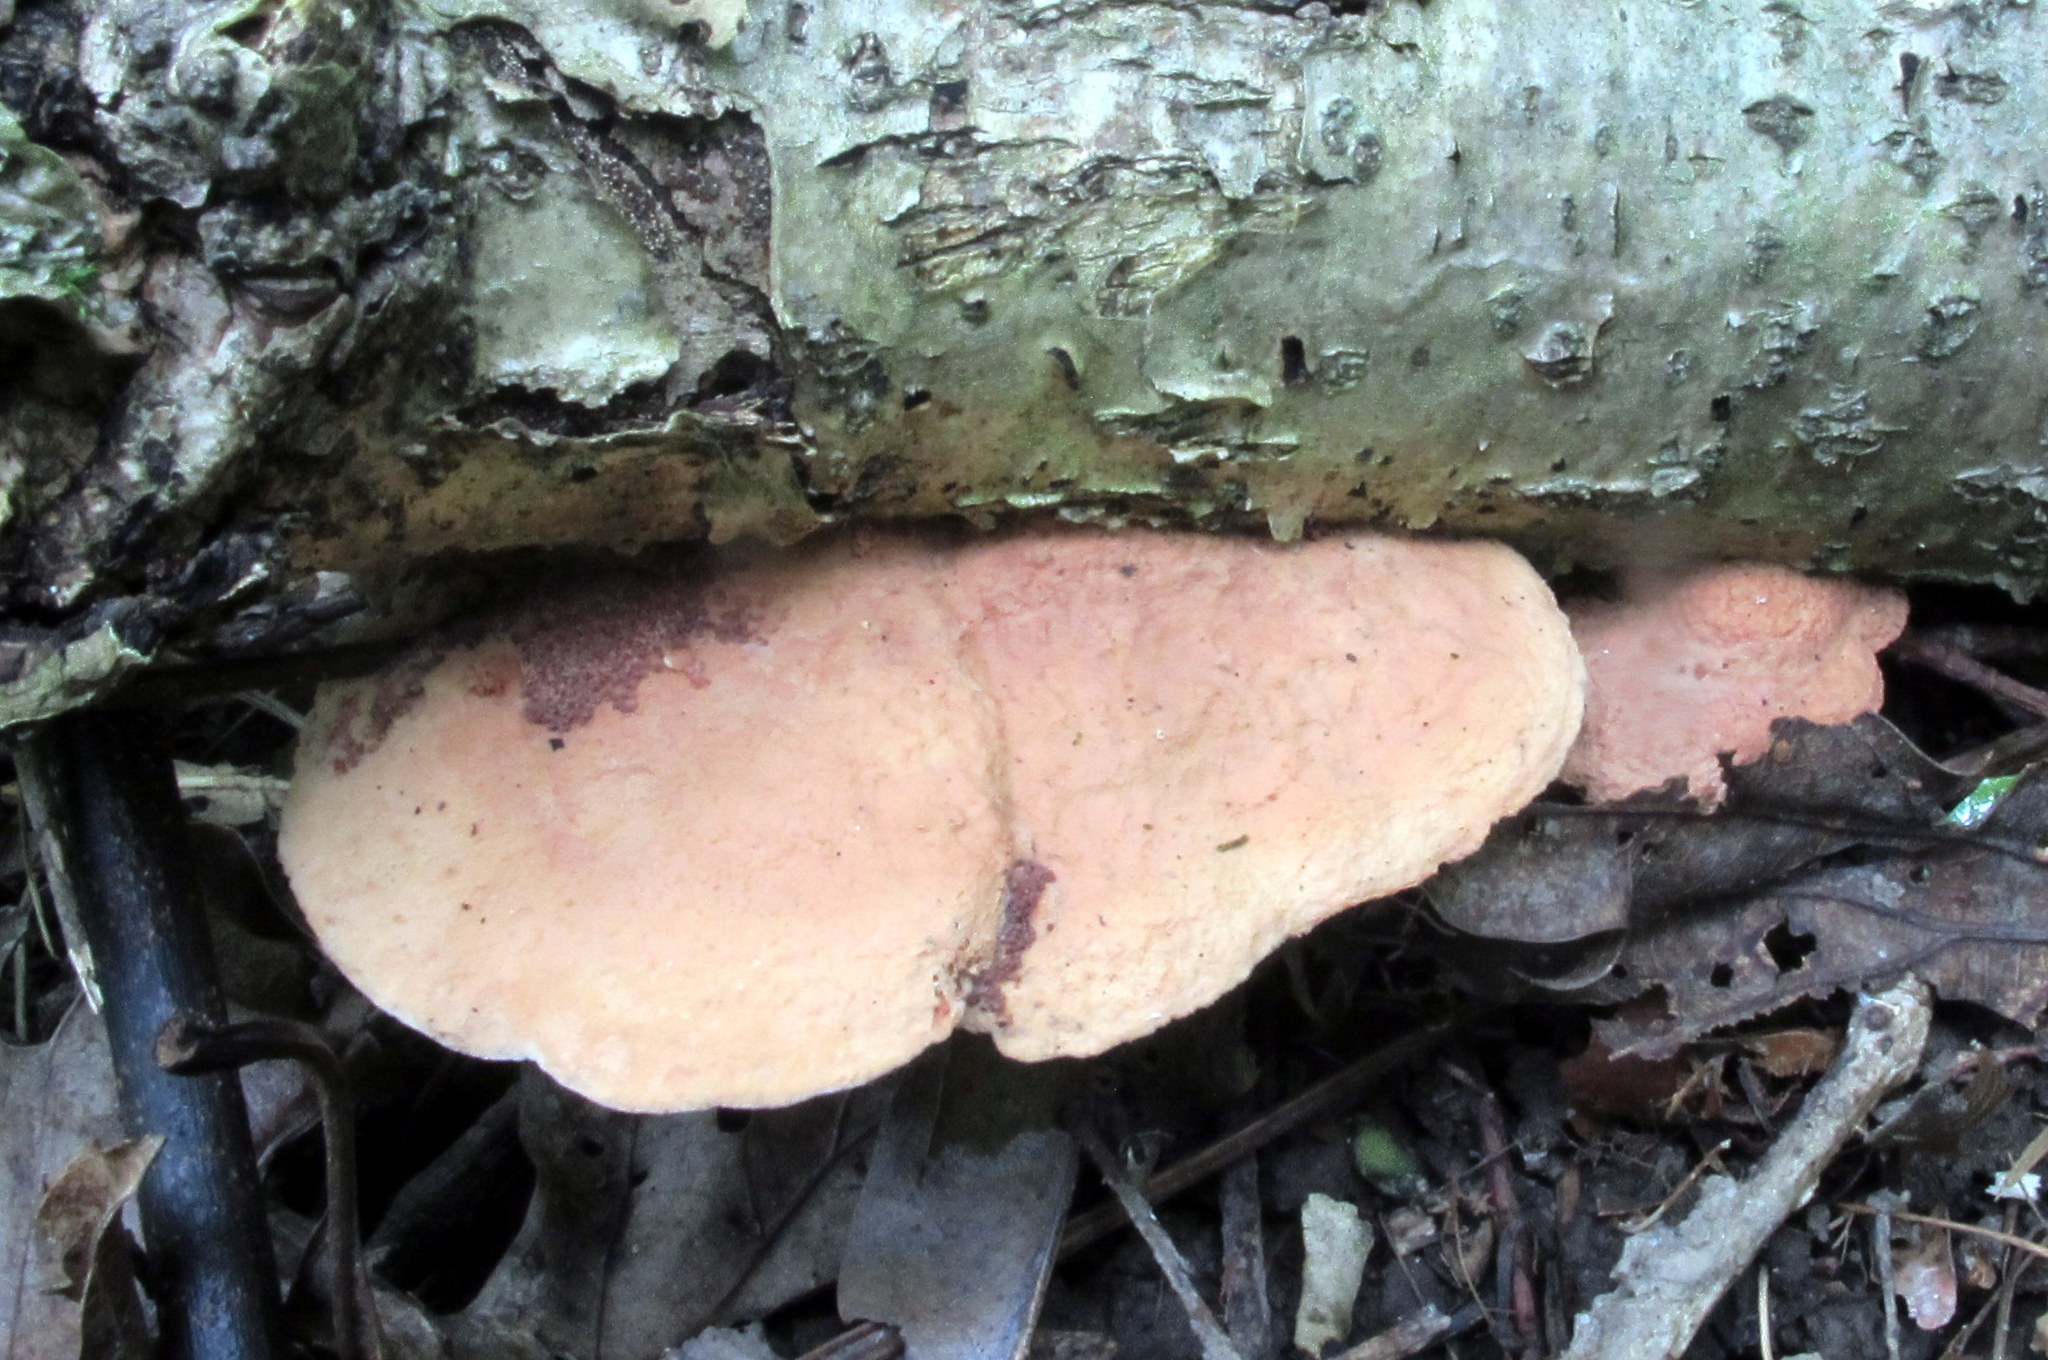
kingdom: Fungi
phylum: Basidiomycota
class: Agaricomycetes
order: Polyporales
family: Phanerochaetaceae
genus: Hapalopilus
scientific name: Hapalopilus rutilans
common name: Tender nesting polypore
